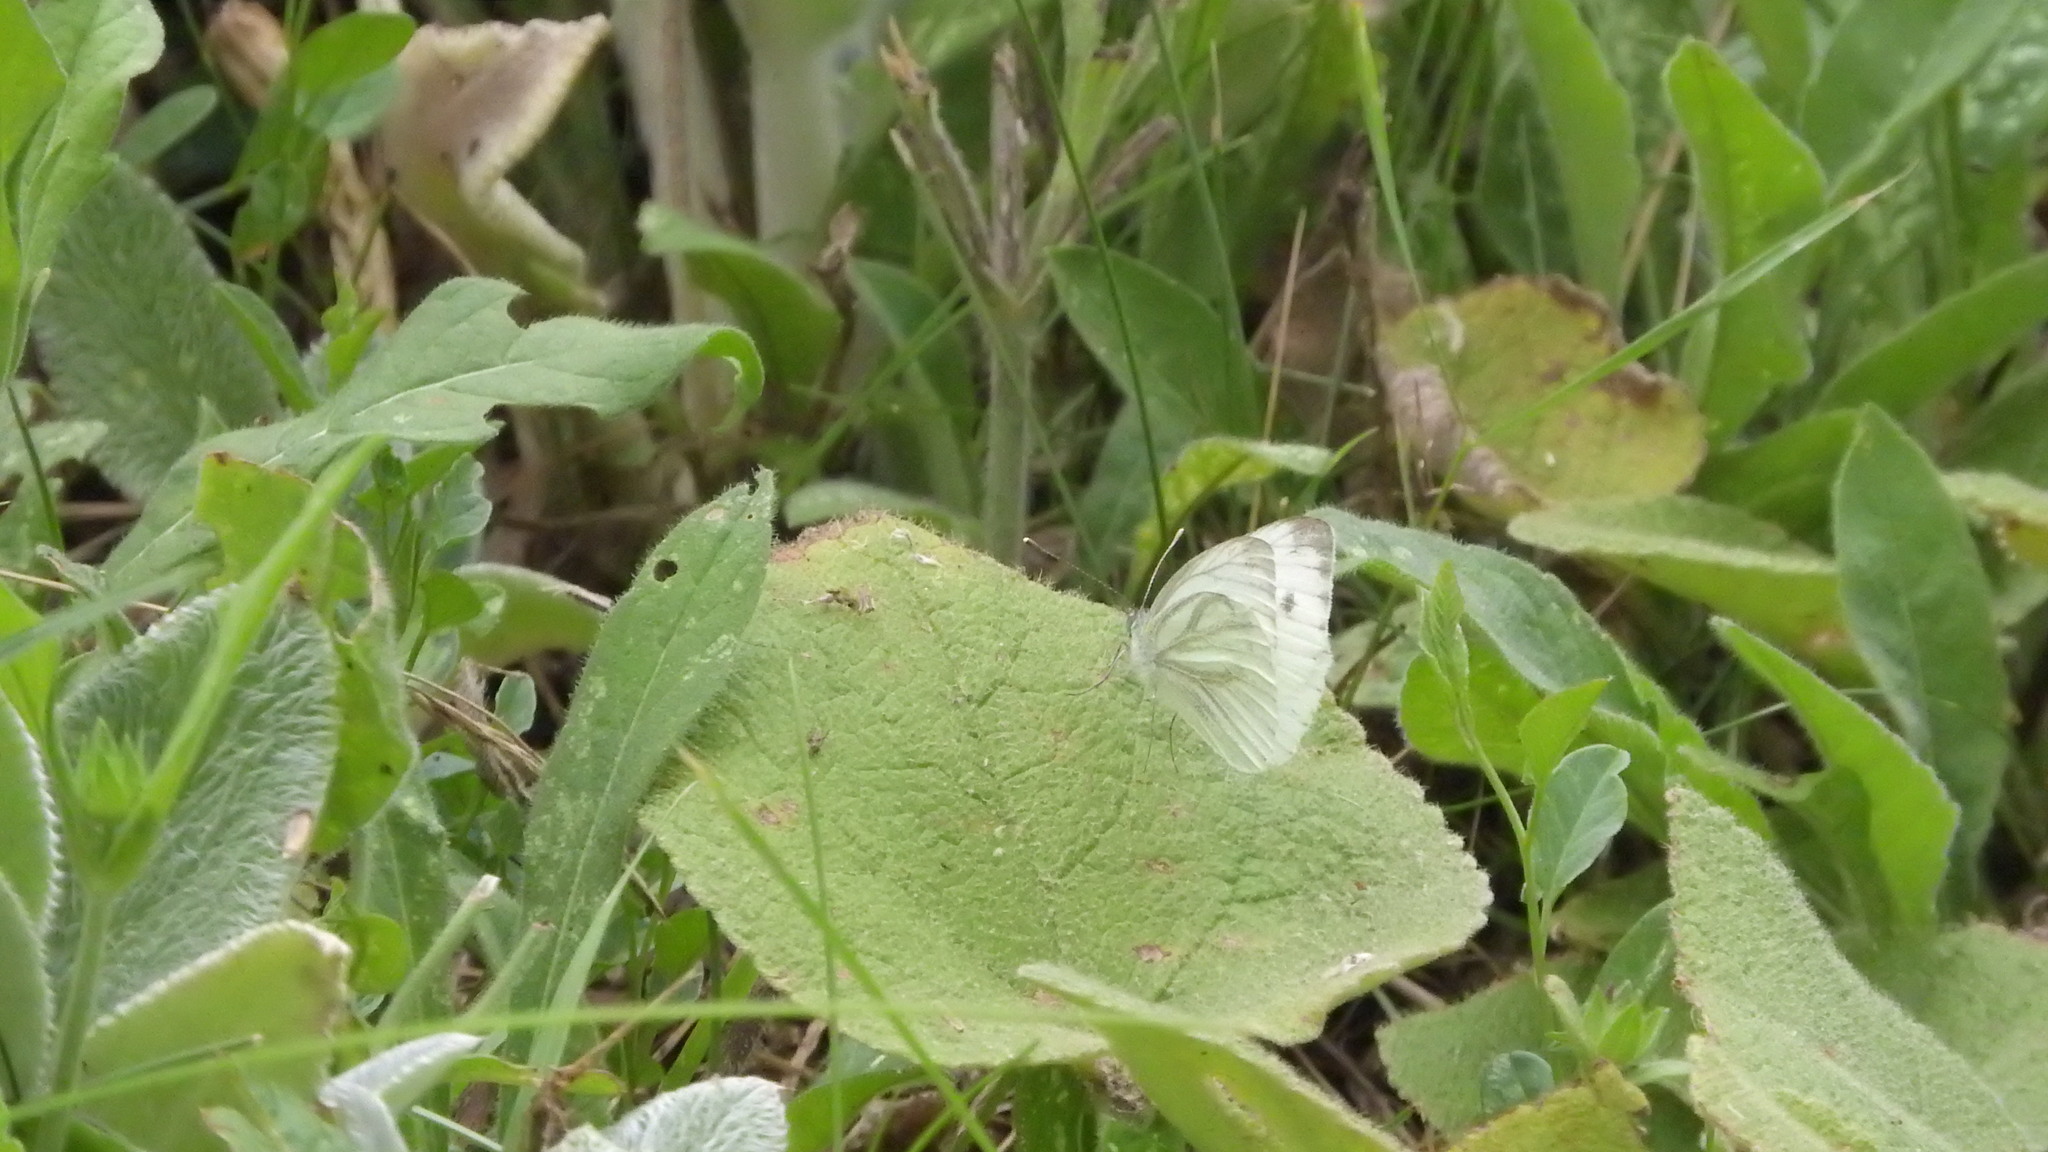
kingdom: Animalia
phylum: Arthropoda
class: Insecta
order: Lepidoptera
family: Pieridae
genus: Pieris
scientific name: Pieris napi
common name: Green-veined white
